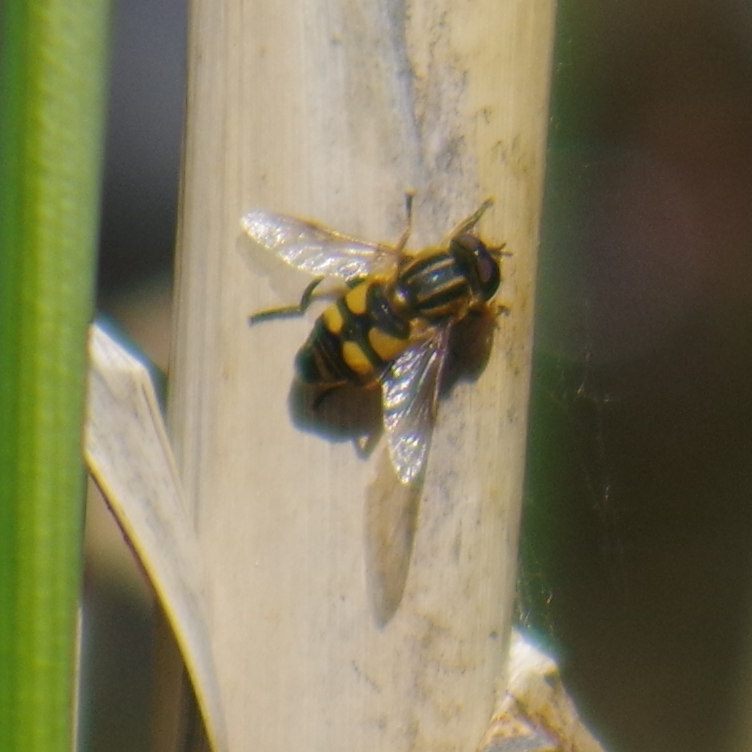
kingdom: Animalia
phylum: Arthropoda
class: Insecta
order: Diptera
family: Syrphidae
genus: Helophilus
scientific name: Helophilus fasciatus
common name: Narrow-headed marsh fly
